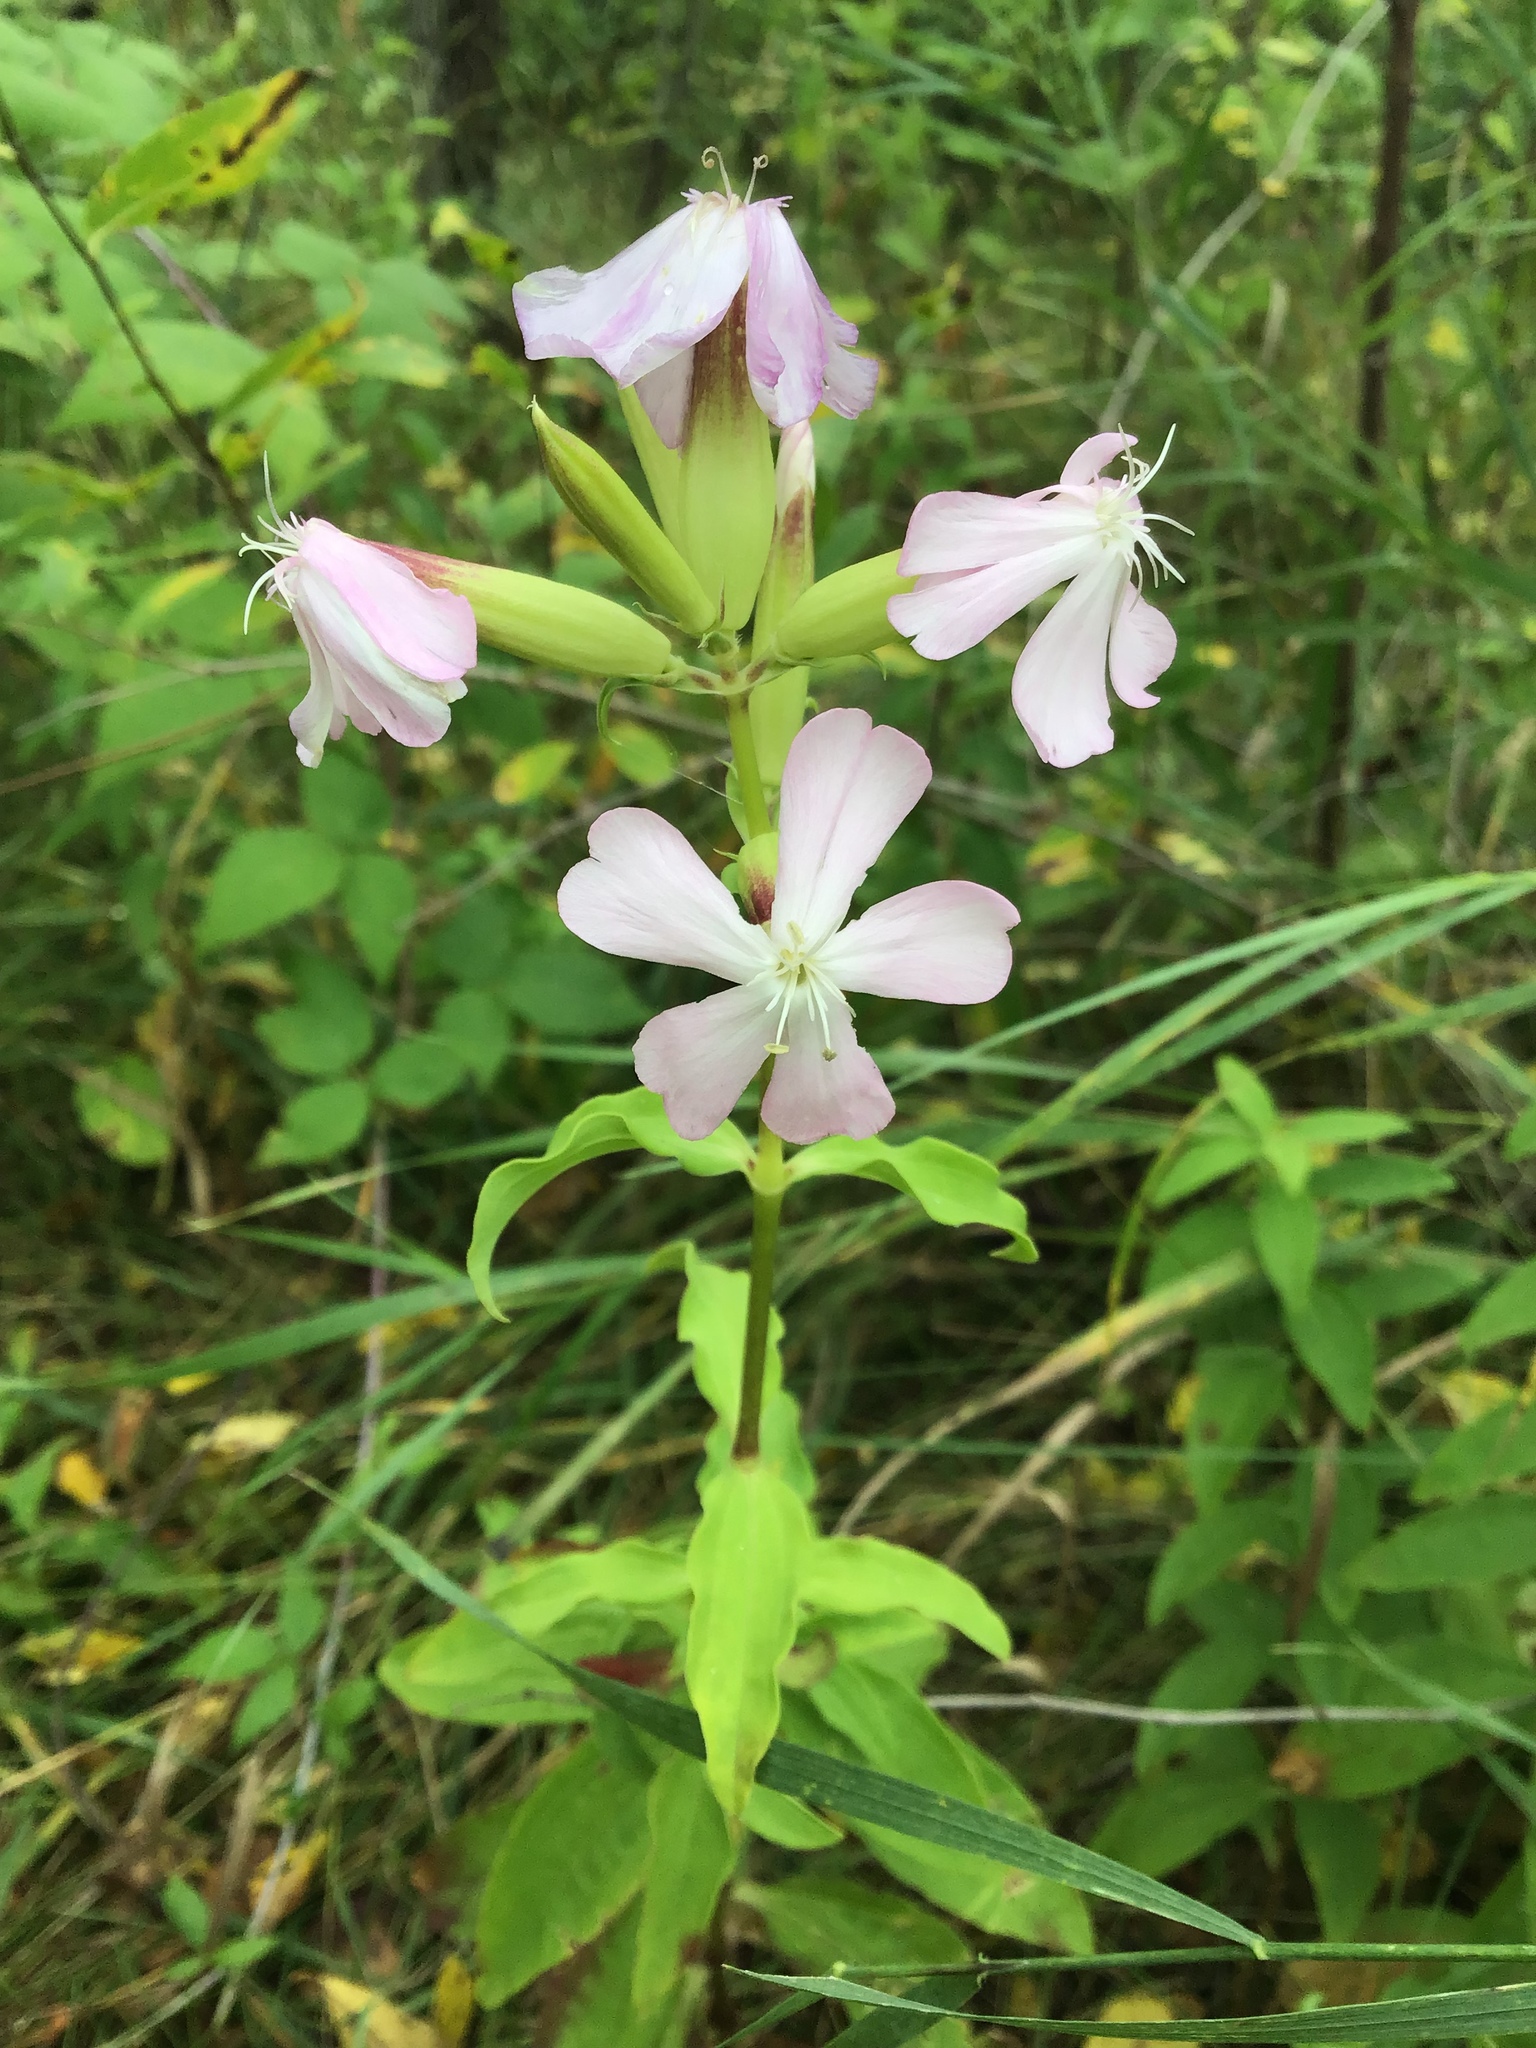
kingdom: Plantae
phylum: Tracheophyta
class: Magnoliopsida
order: Caryophyllales
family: Caryophyllaceae
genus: Saponaria
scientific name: Saponaria officinalis
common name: Soapwort
